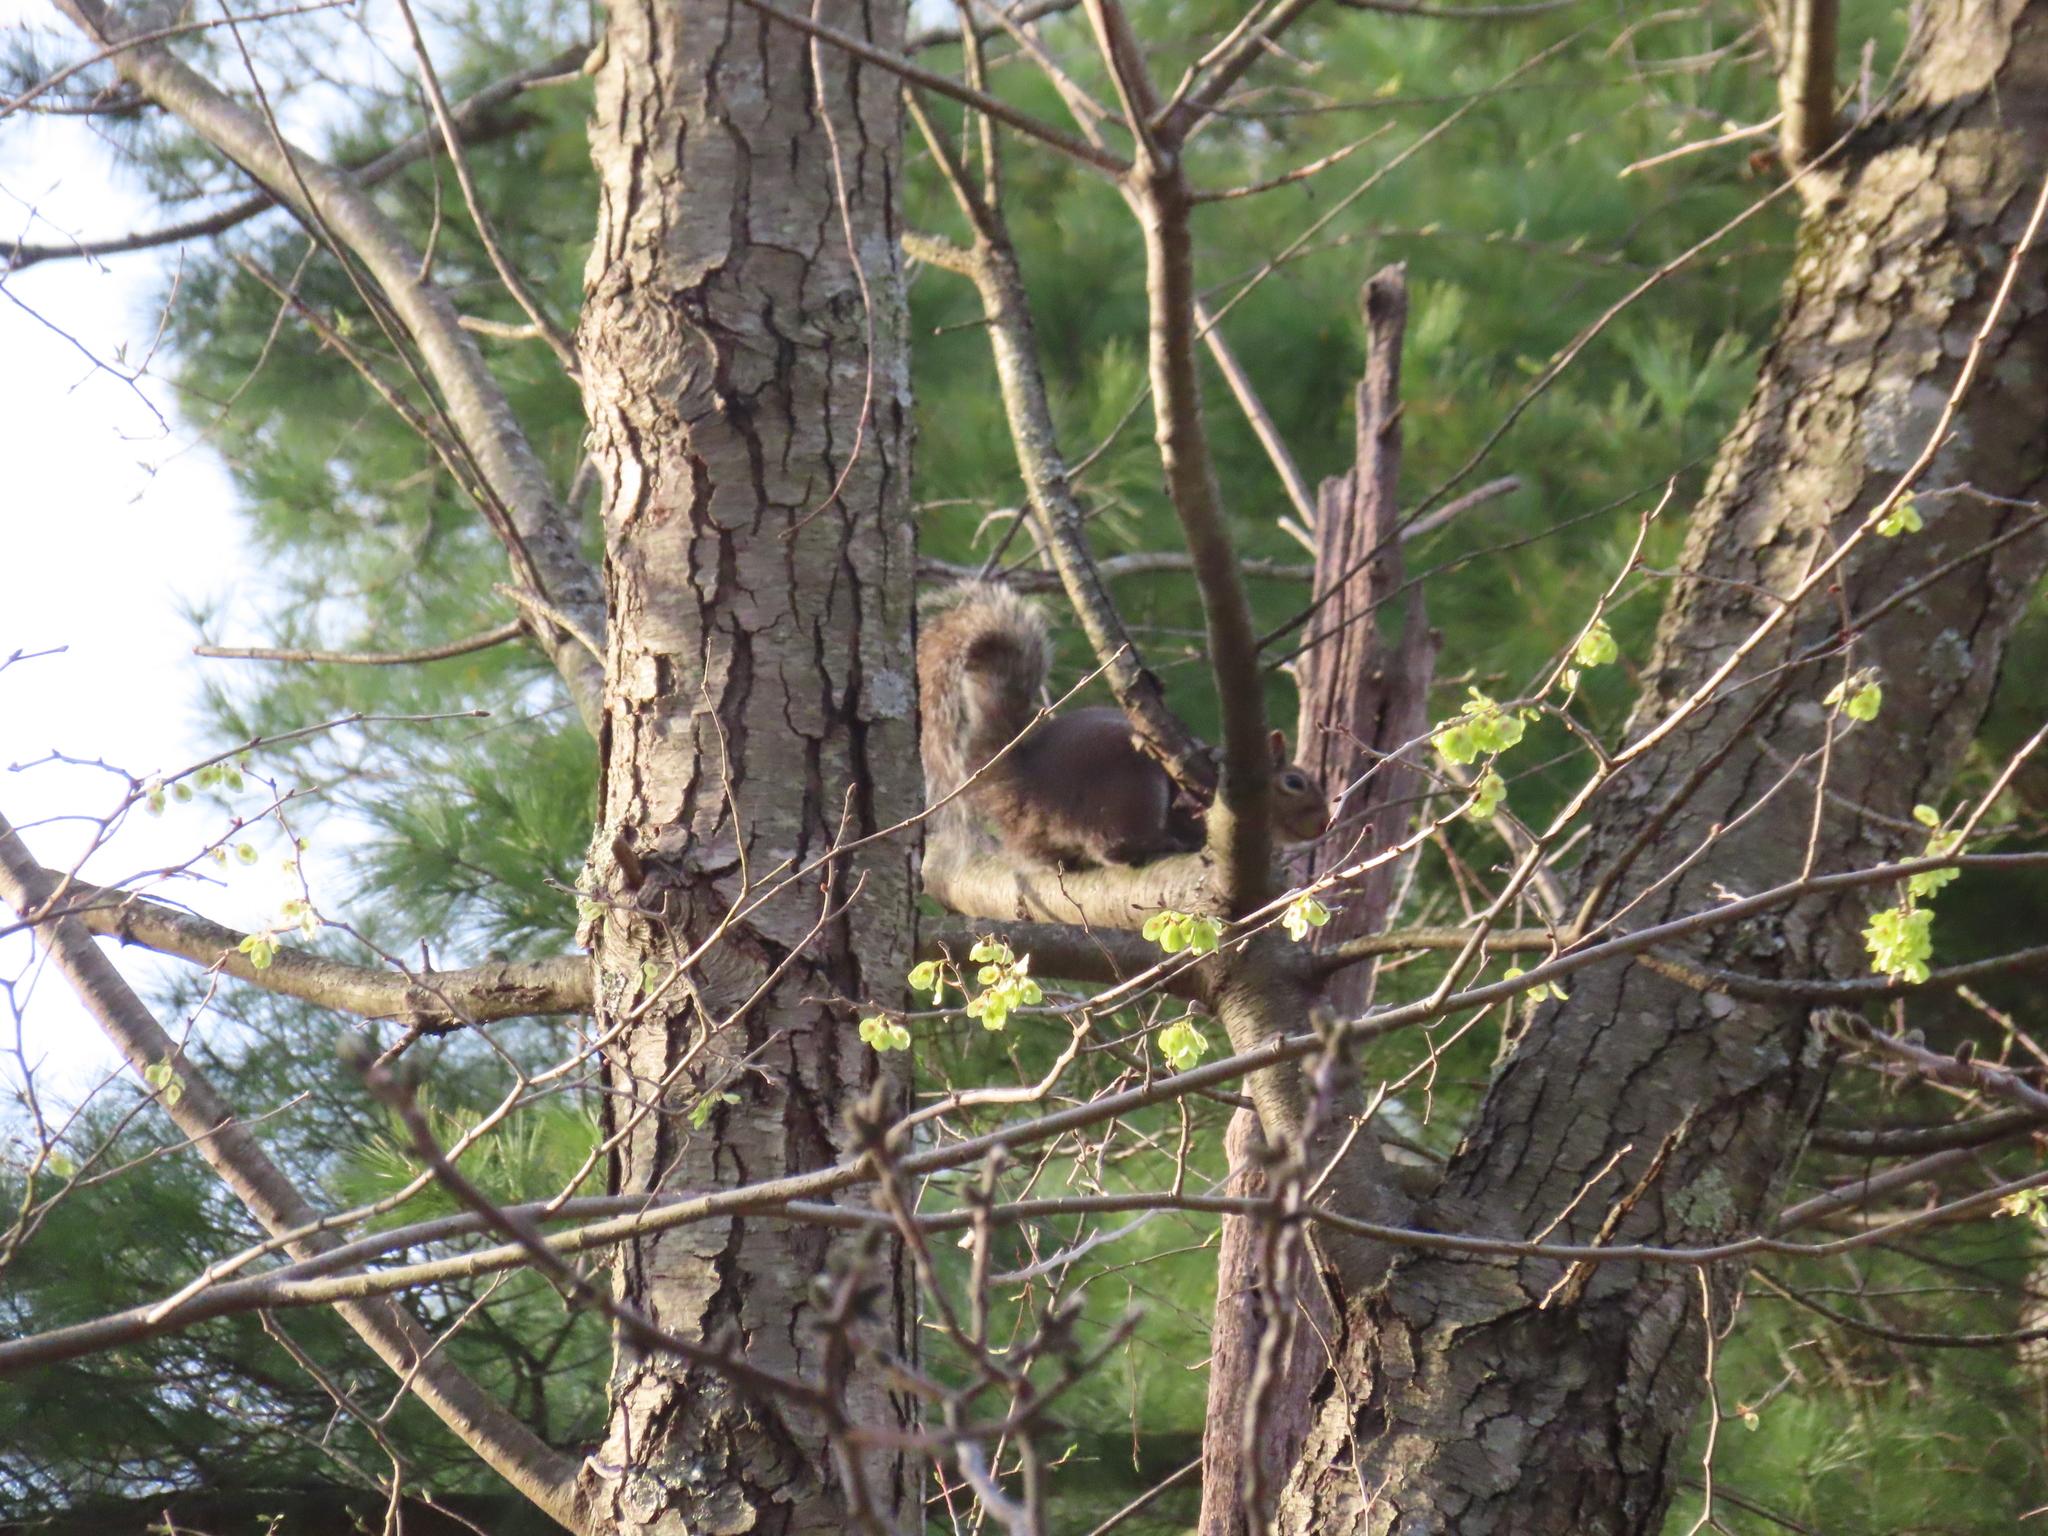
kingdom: Animalia
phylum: Chordata
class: Mammalia
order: Rodentia
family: Sciuridae
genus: Sciurus
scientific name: Sciurus carolinensis
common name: Eastern gray squirrel
